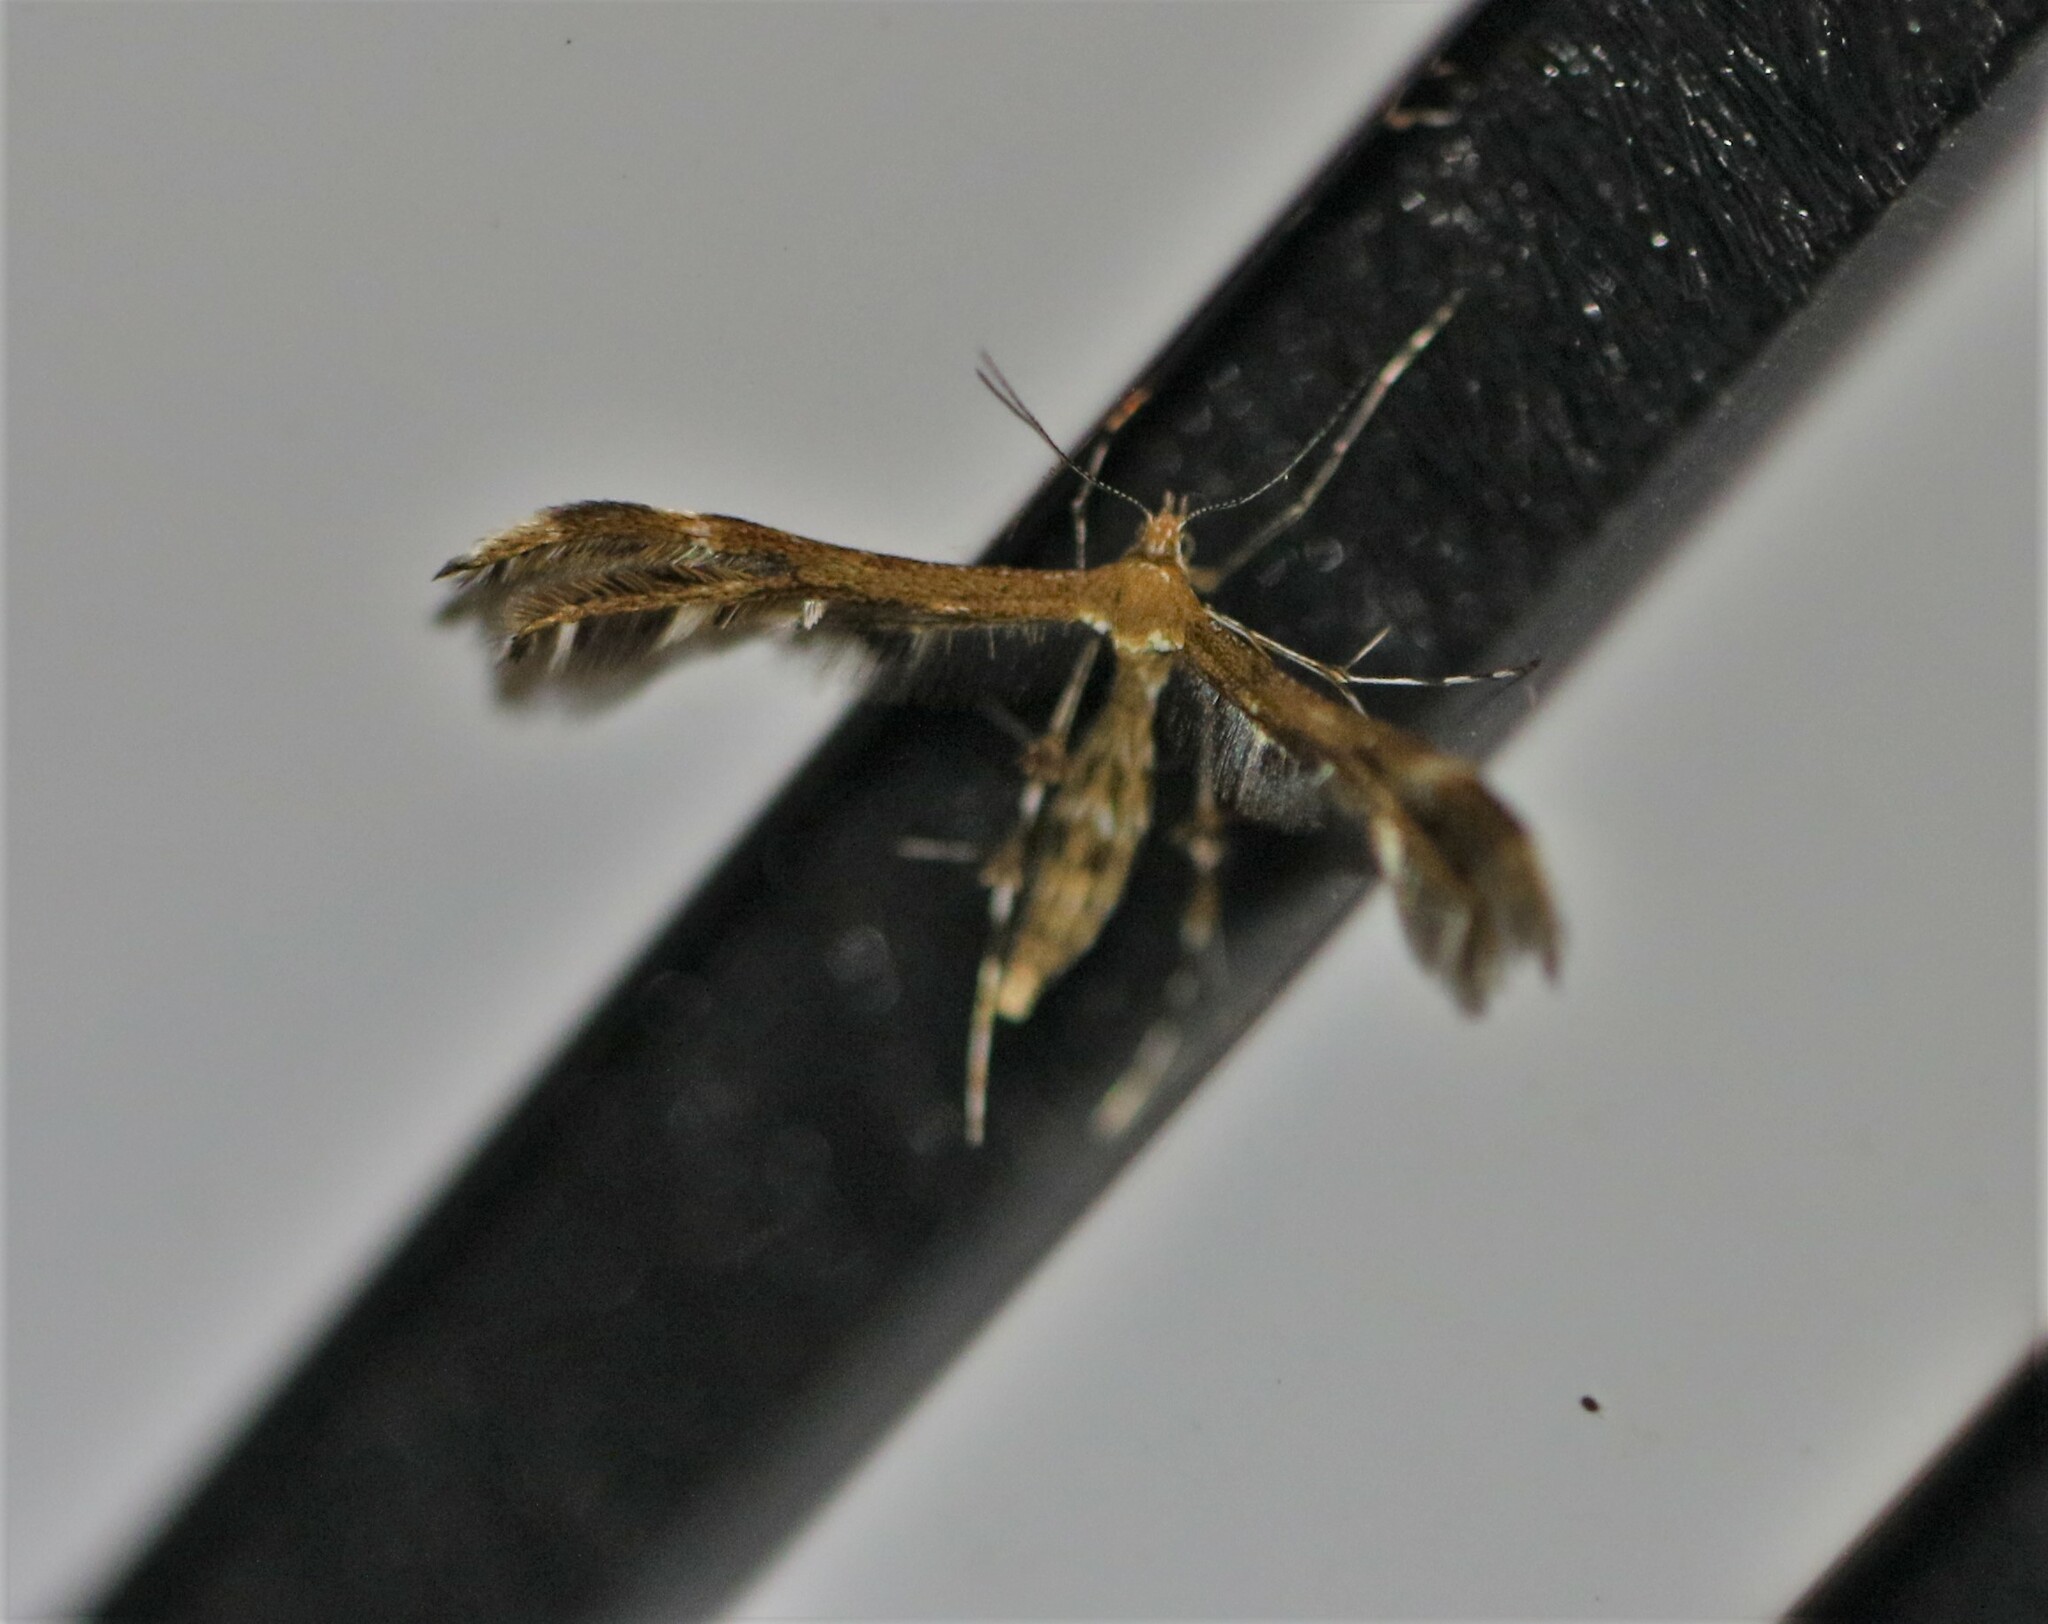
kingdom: Animalia
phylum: Arthropoda
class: Insecta
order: Lepidoptera
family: Pterophoridae
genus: Dejongia
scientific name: Dejongia lobidactylus
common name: Lobed plume moth
